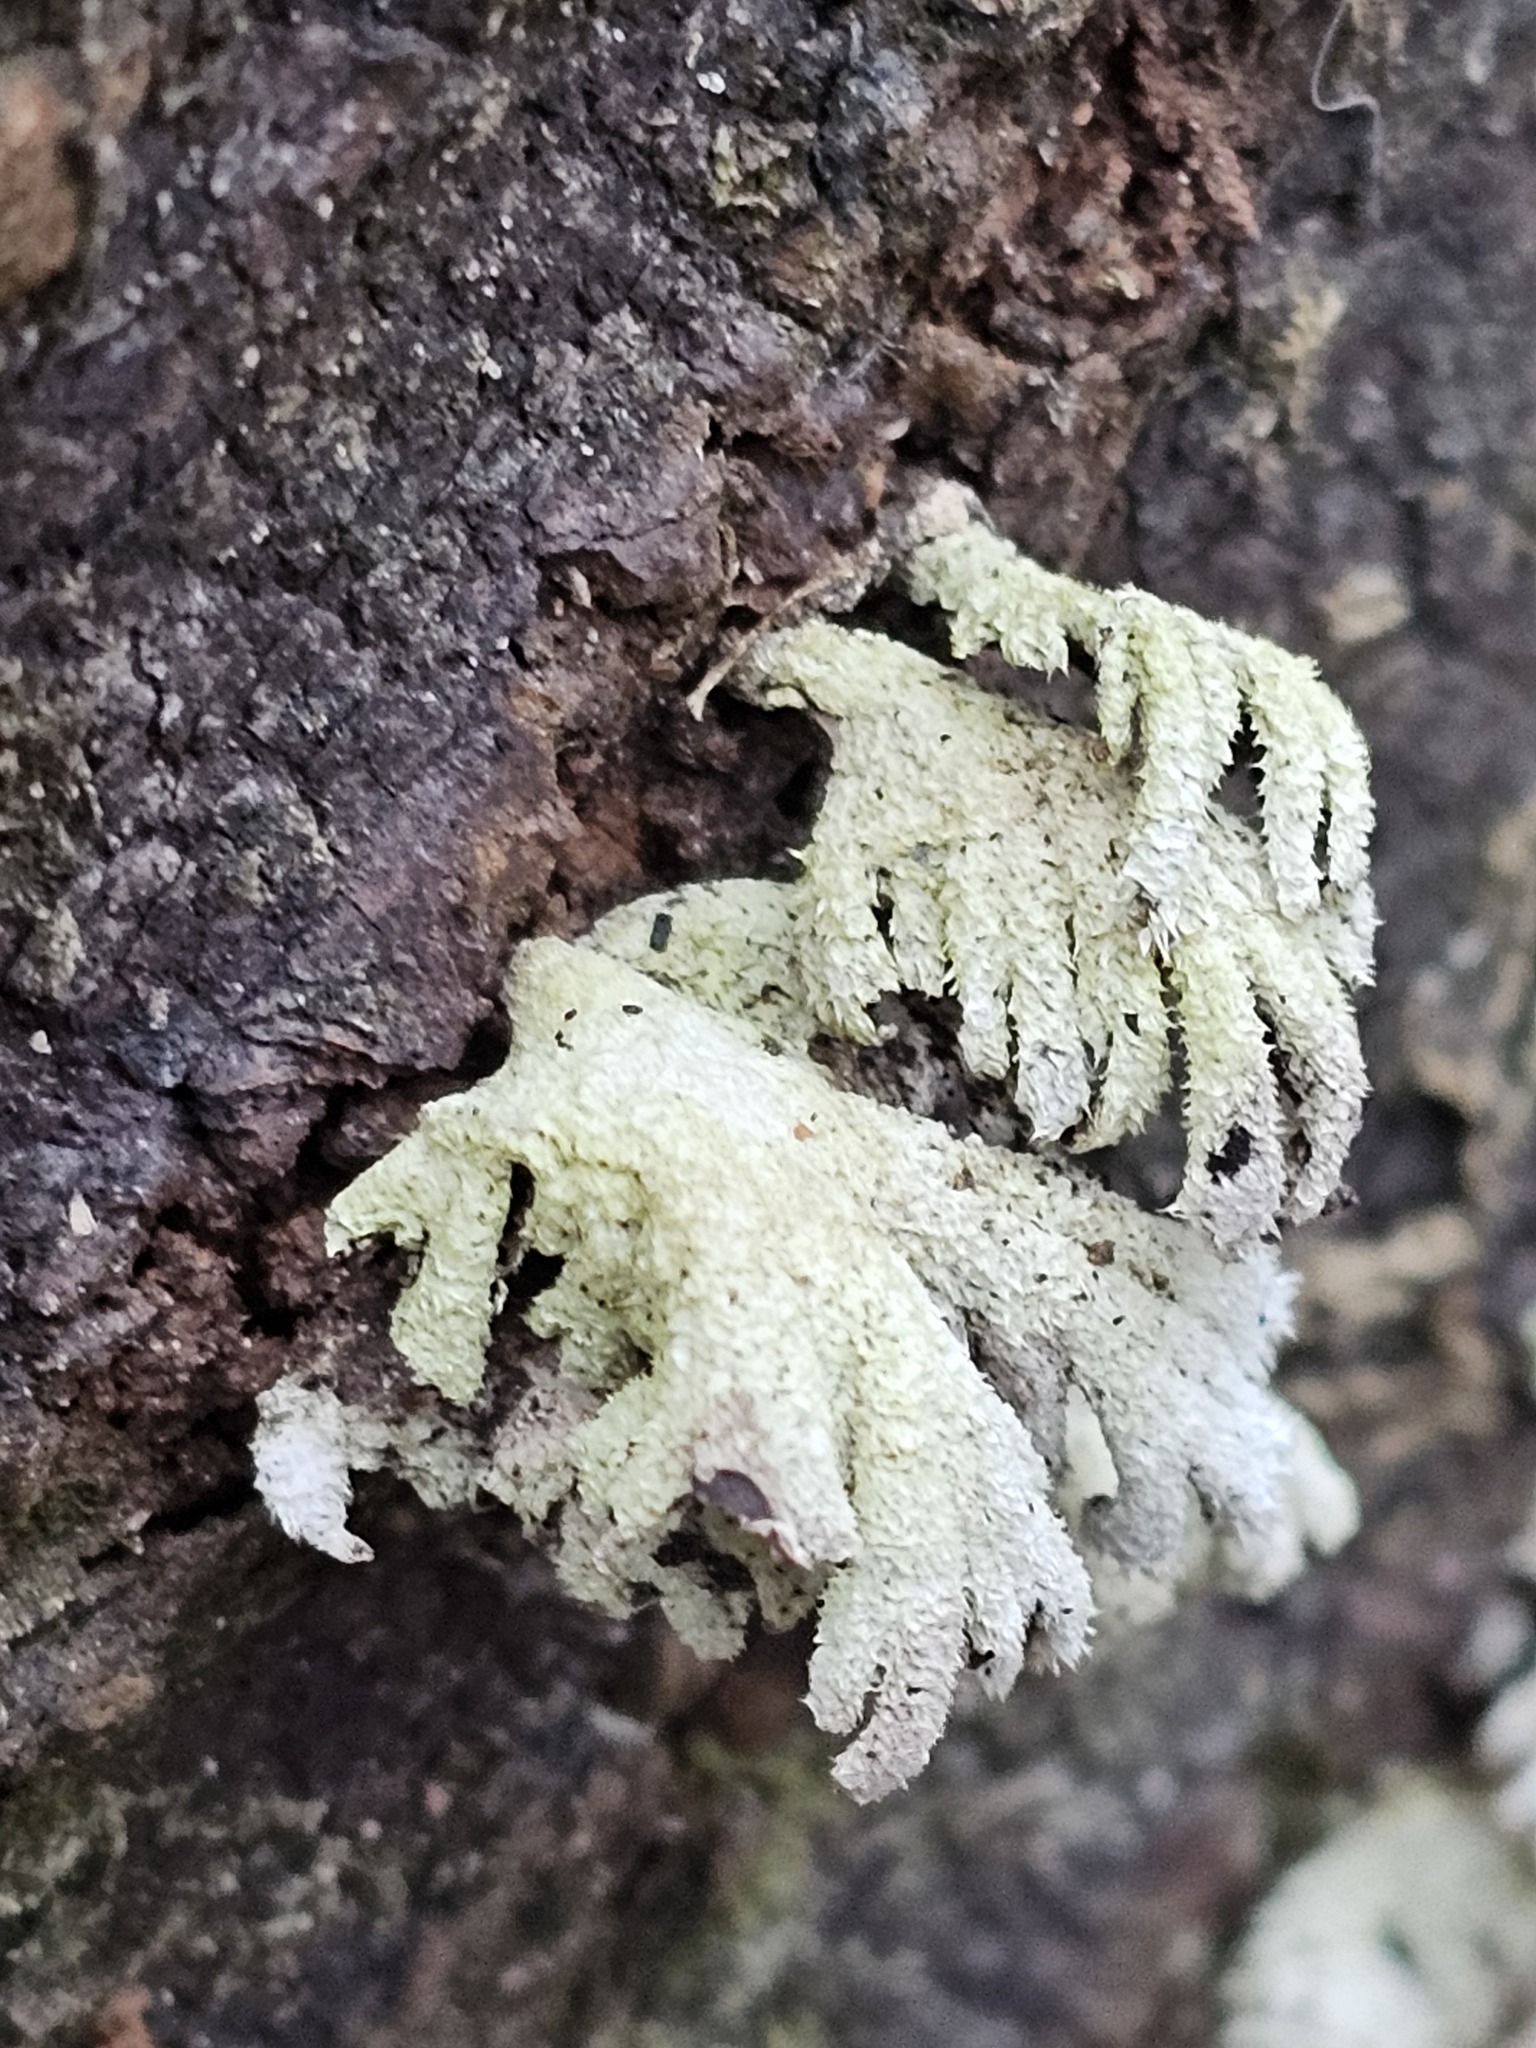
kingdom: Fungi
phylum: Basidiomycota
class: Agaricomycetes
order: Agaricales
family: Schizophyllaceae
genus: Schizophyllum
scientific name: Schizophyllum commune
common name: Common porecrust
